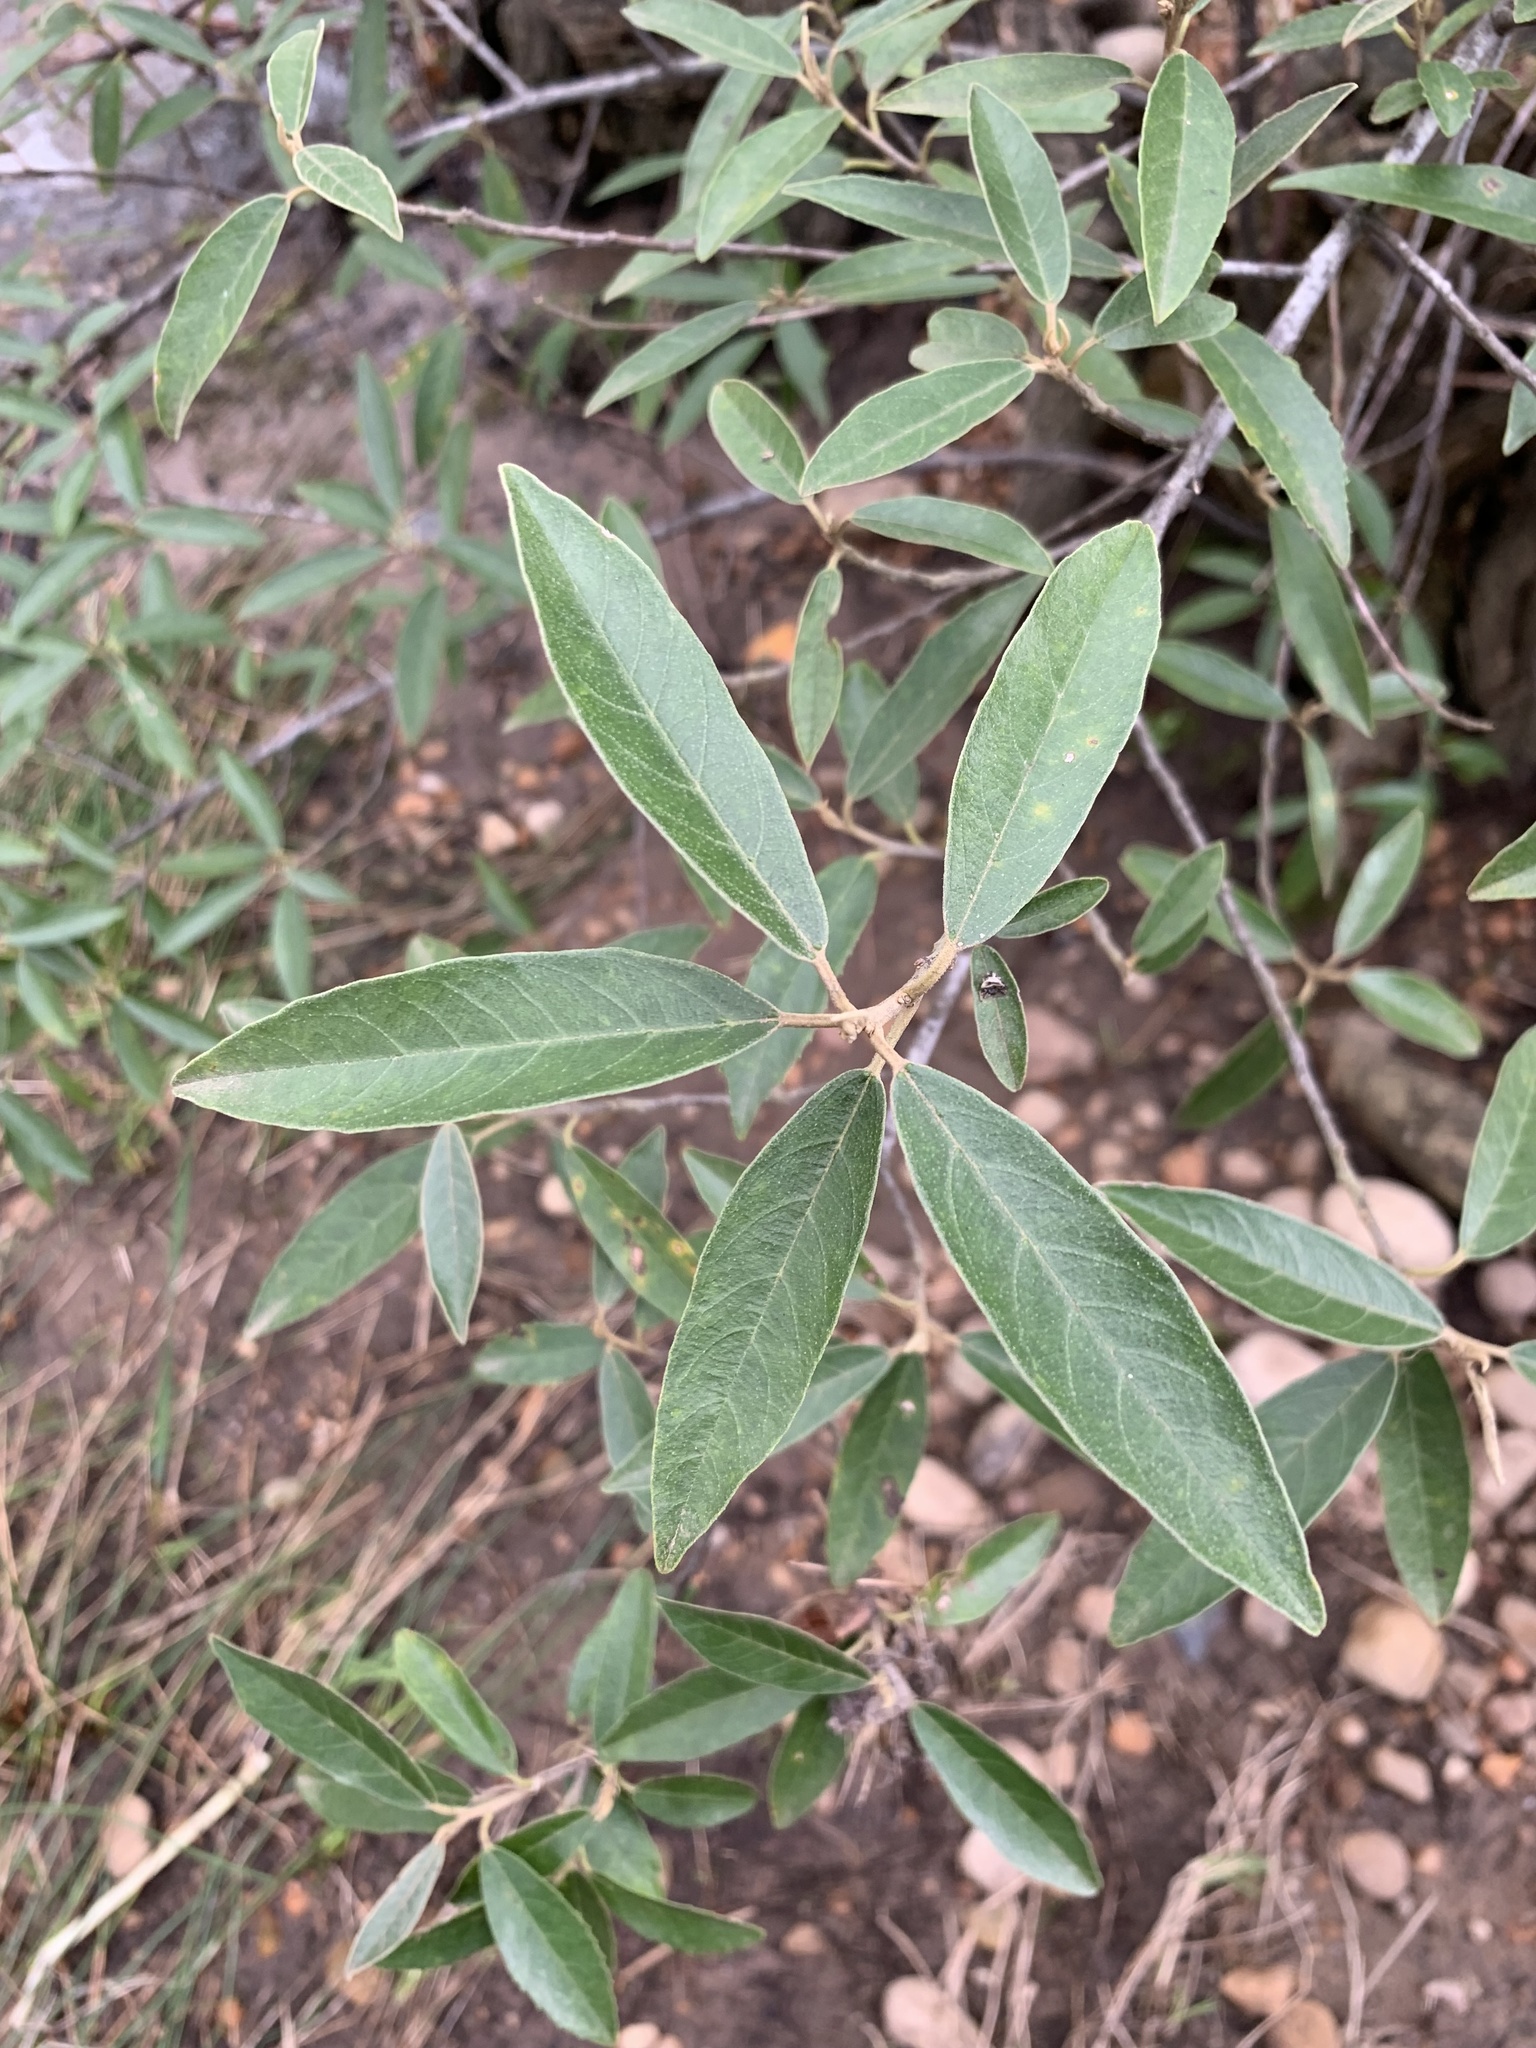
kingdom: Plantae
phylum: Tracheophyta
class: Magnoliopsida
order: Malpighiales
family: Achariaceae
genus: Kiggelaria
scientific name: Kiggelaria africana
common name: Wild peach
